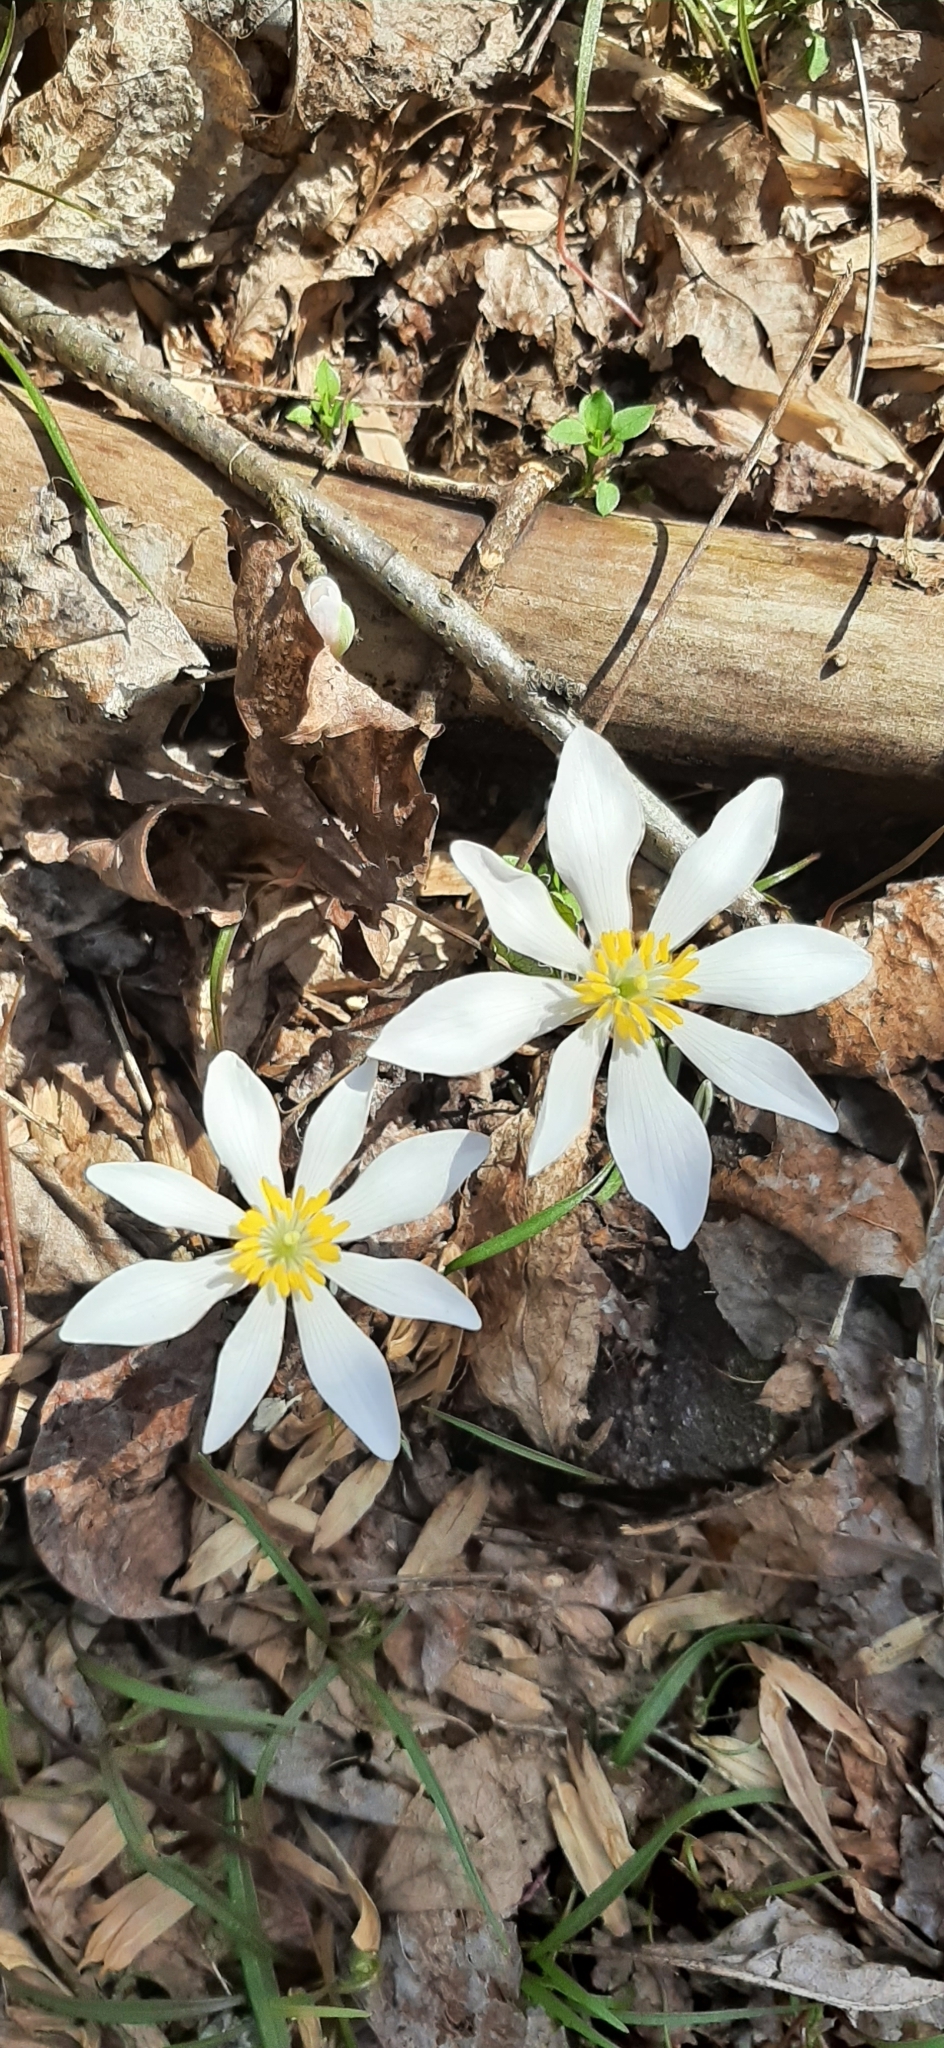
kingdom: Plantae
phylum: Tracheophyta
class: Magnoliopsida
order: Ranunculales
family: Papaveraceae
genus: Sanguinaria
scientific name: Sanguinaria canadensis
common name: Bloodroot
